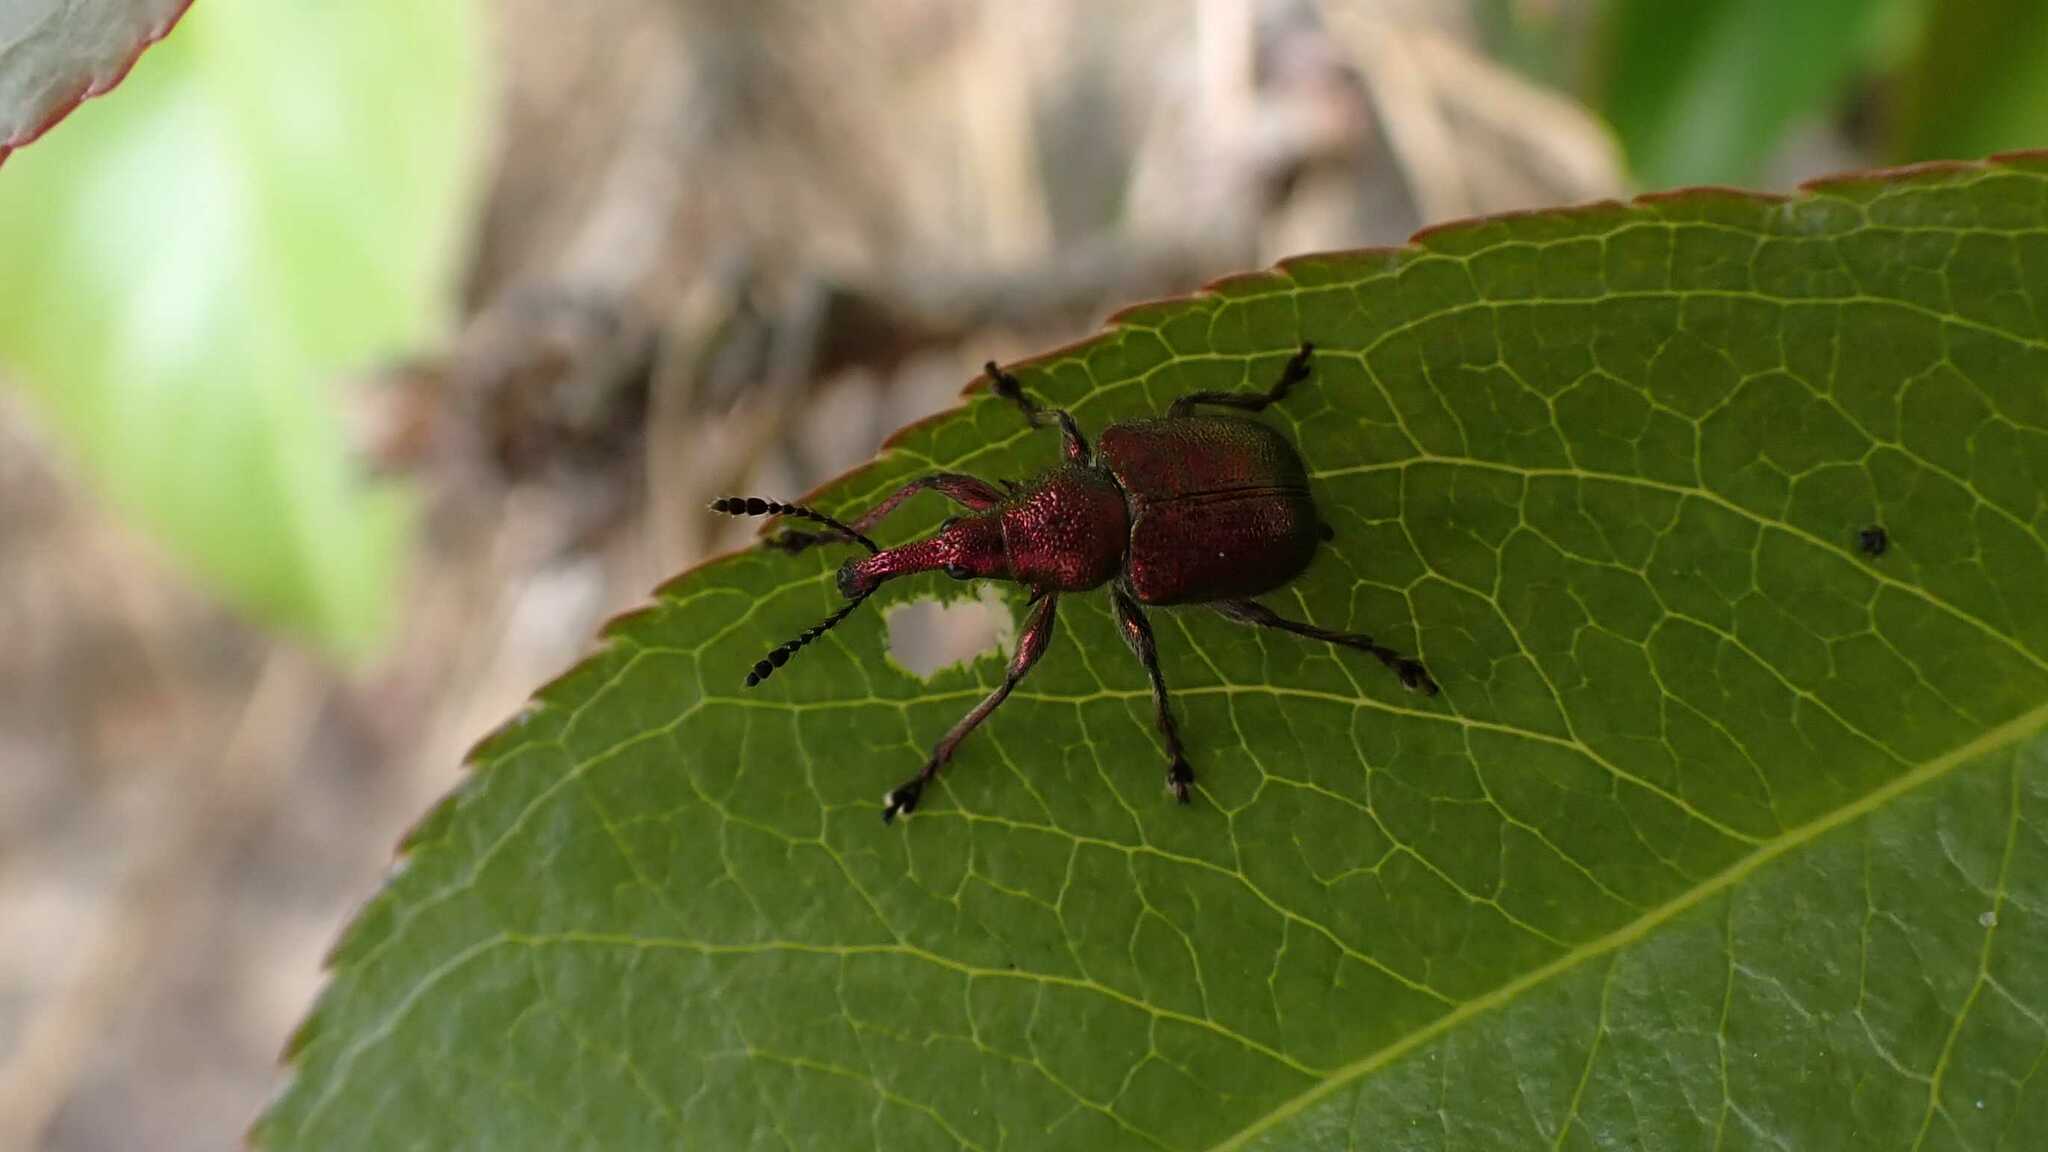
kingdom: Animalia
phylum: Arthropoda
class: Insecta
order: Coleoptera
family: Attelabidae
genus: Rhynchites
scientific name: Rhynchites auratus
